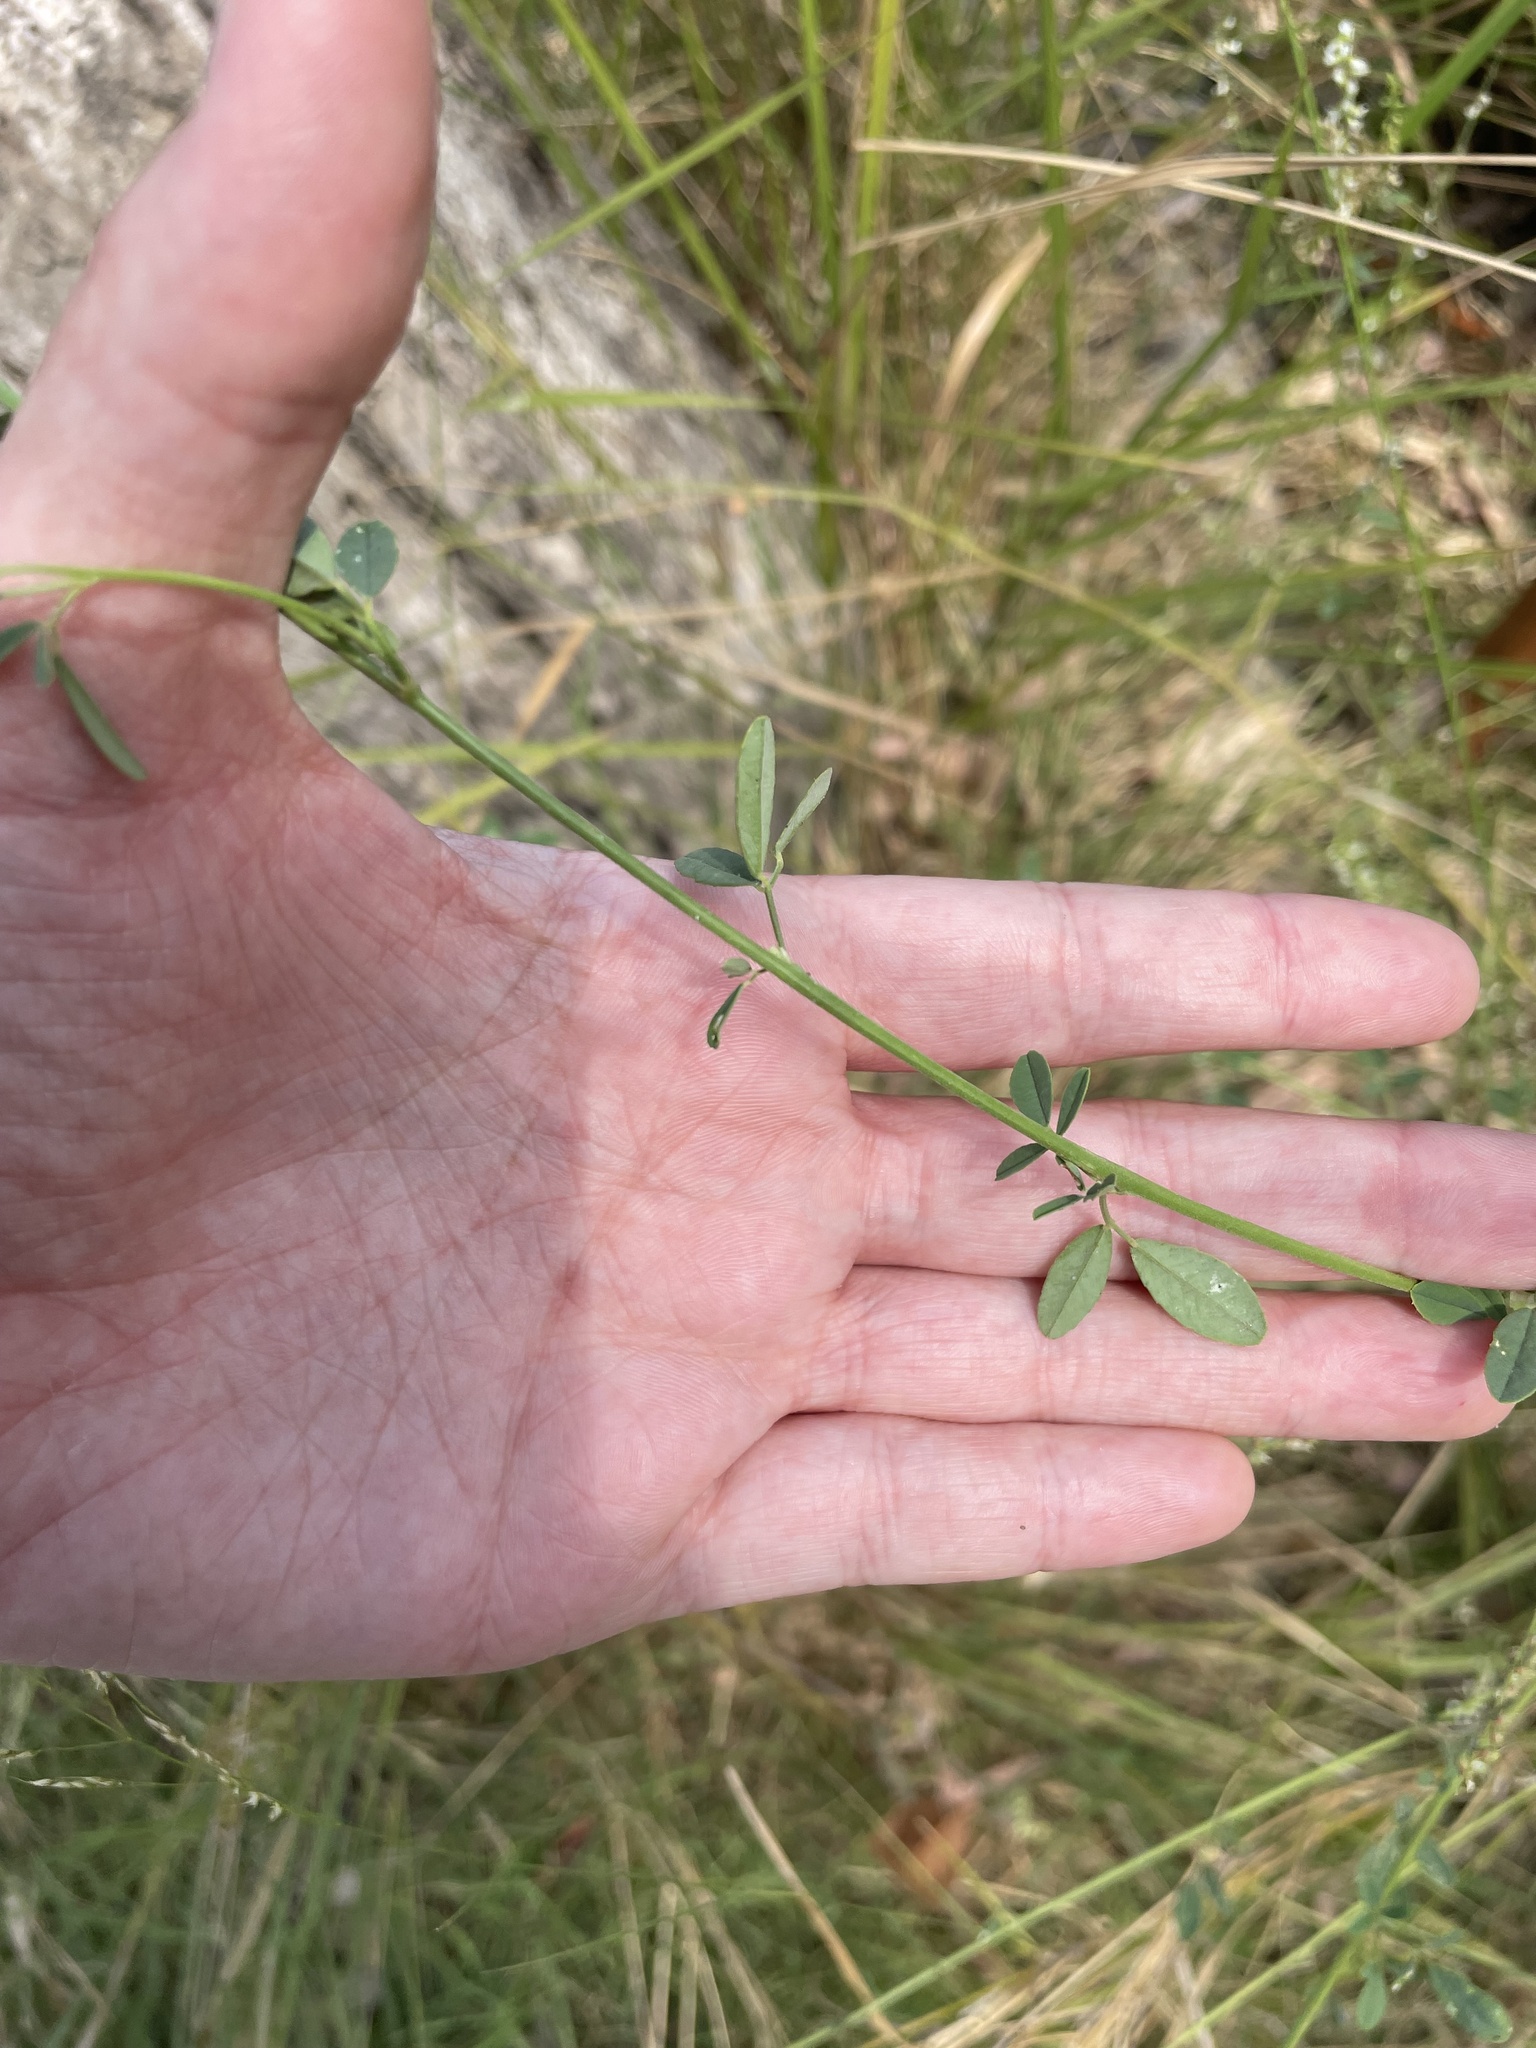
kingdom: Plantae
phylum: Tracheophyta
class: Magnoliopsida
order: Fabales
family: Fabaceae
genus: Melilotus
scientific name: Melilotus albus
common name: White melilot
